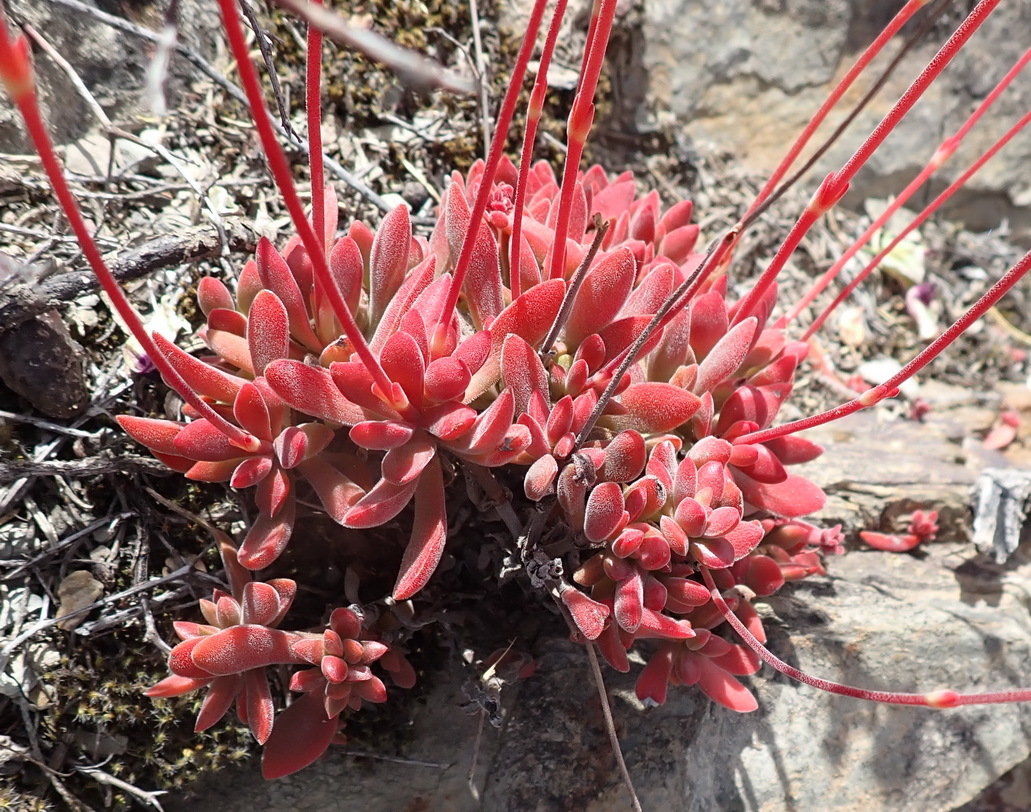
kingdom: Plantae
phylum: Tracheophyta
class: Magnoliopsida
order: Saxifragales
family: Crassulaceae
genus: Crassula
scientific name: Crassula pubescens
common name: Jersey pigmyweed
